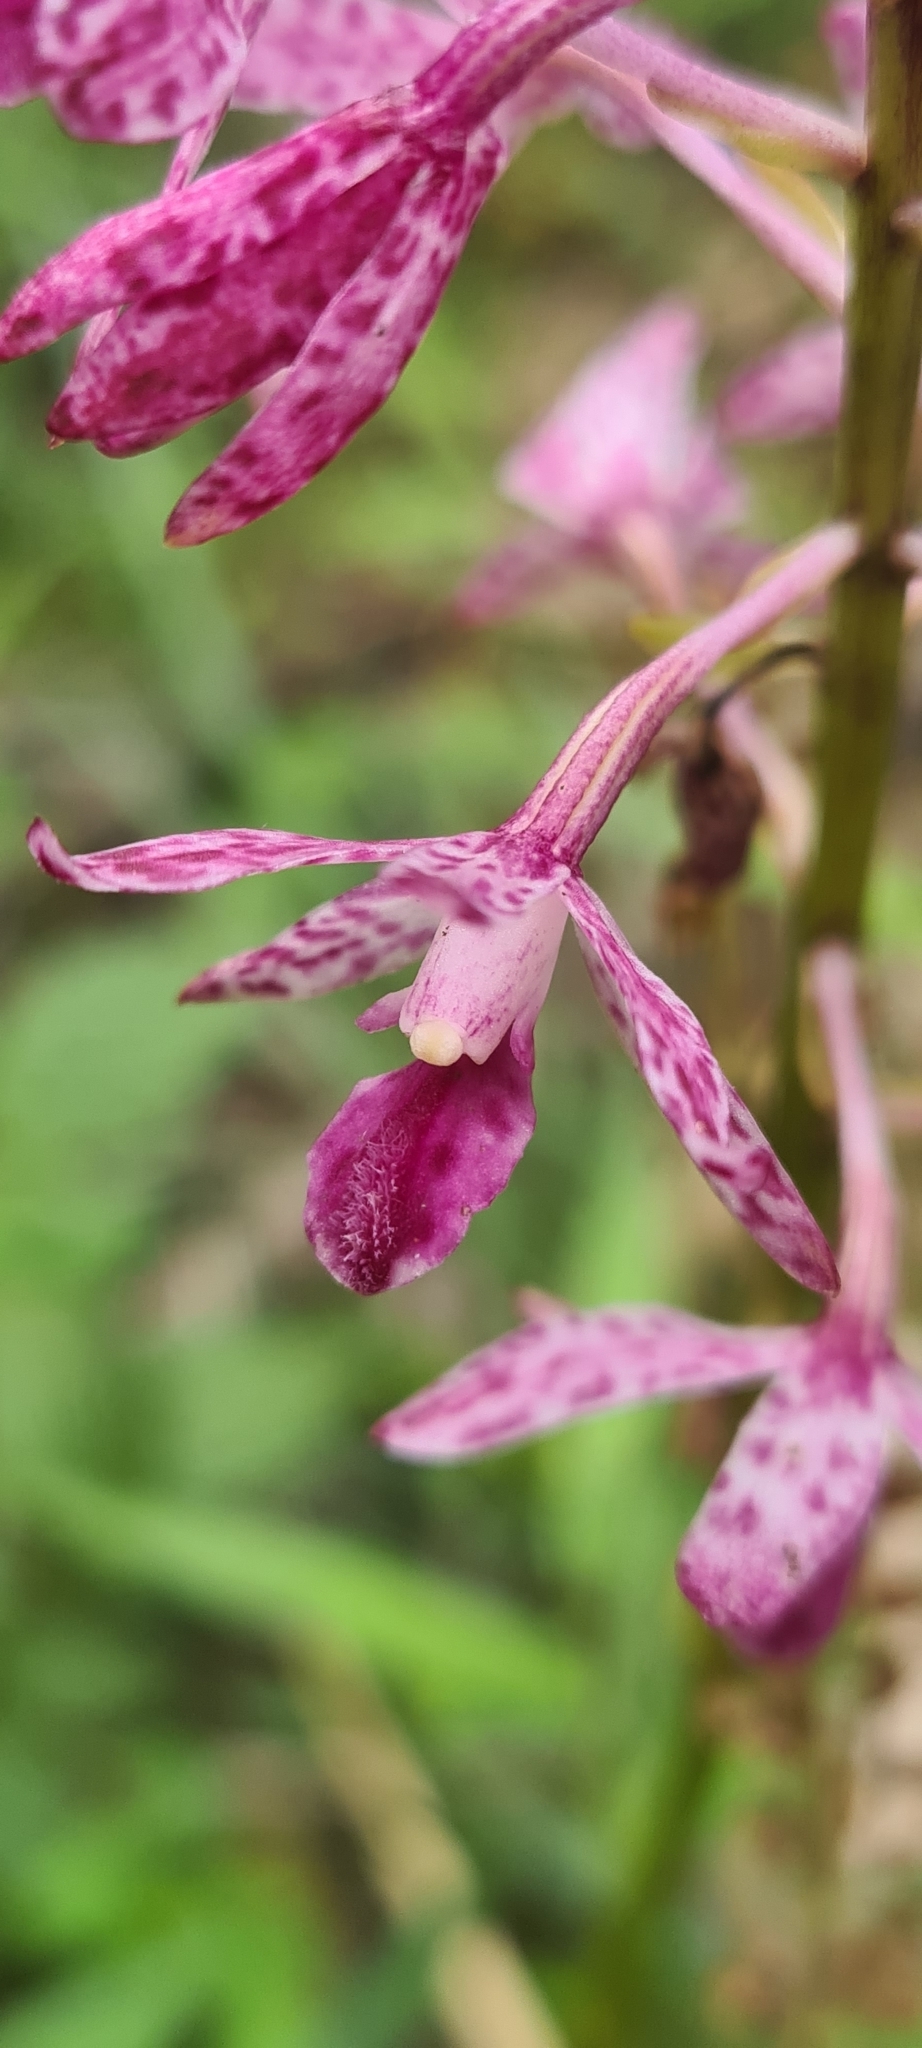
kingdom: Plantae
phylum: Tracheophyta
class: Liliopsida
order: Asparagales
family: Orchidaceae
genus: Dipodium
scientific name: Dipodium squamatum
